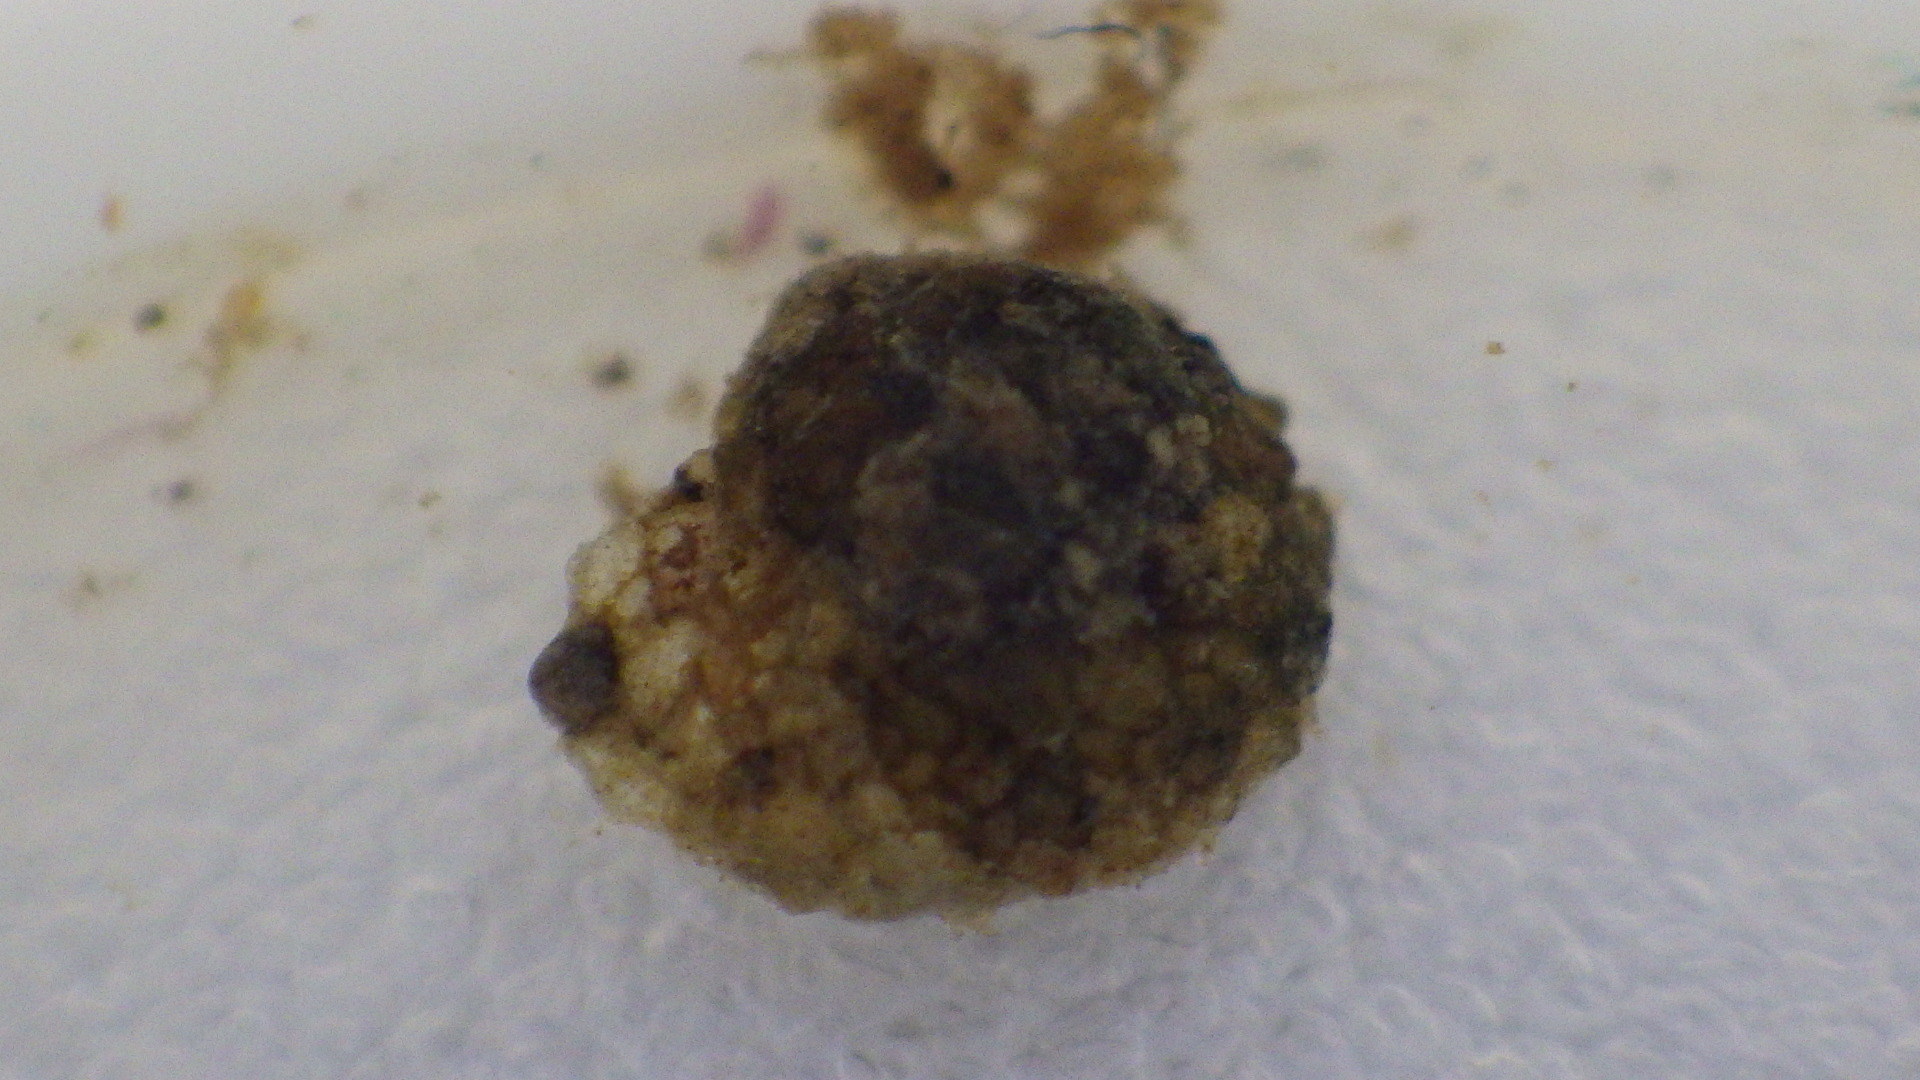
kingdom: Animalia
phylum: Arthropoda
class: Insecta
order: Trichoptera
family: Helicopsychidae
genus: Helicopsyche
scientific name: Helicopsyche borealis
